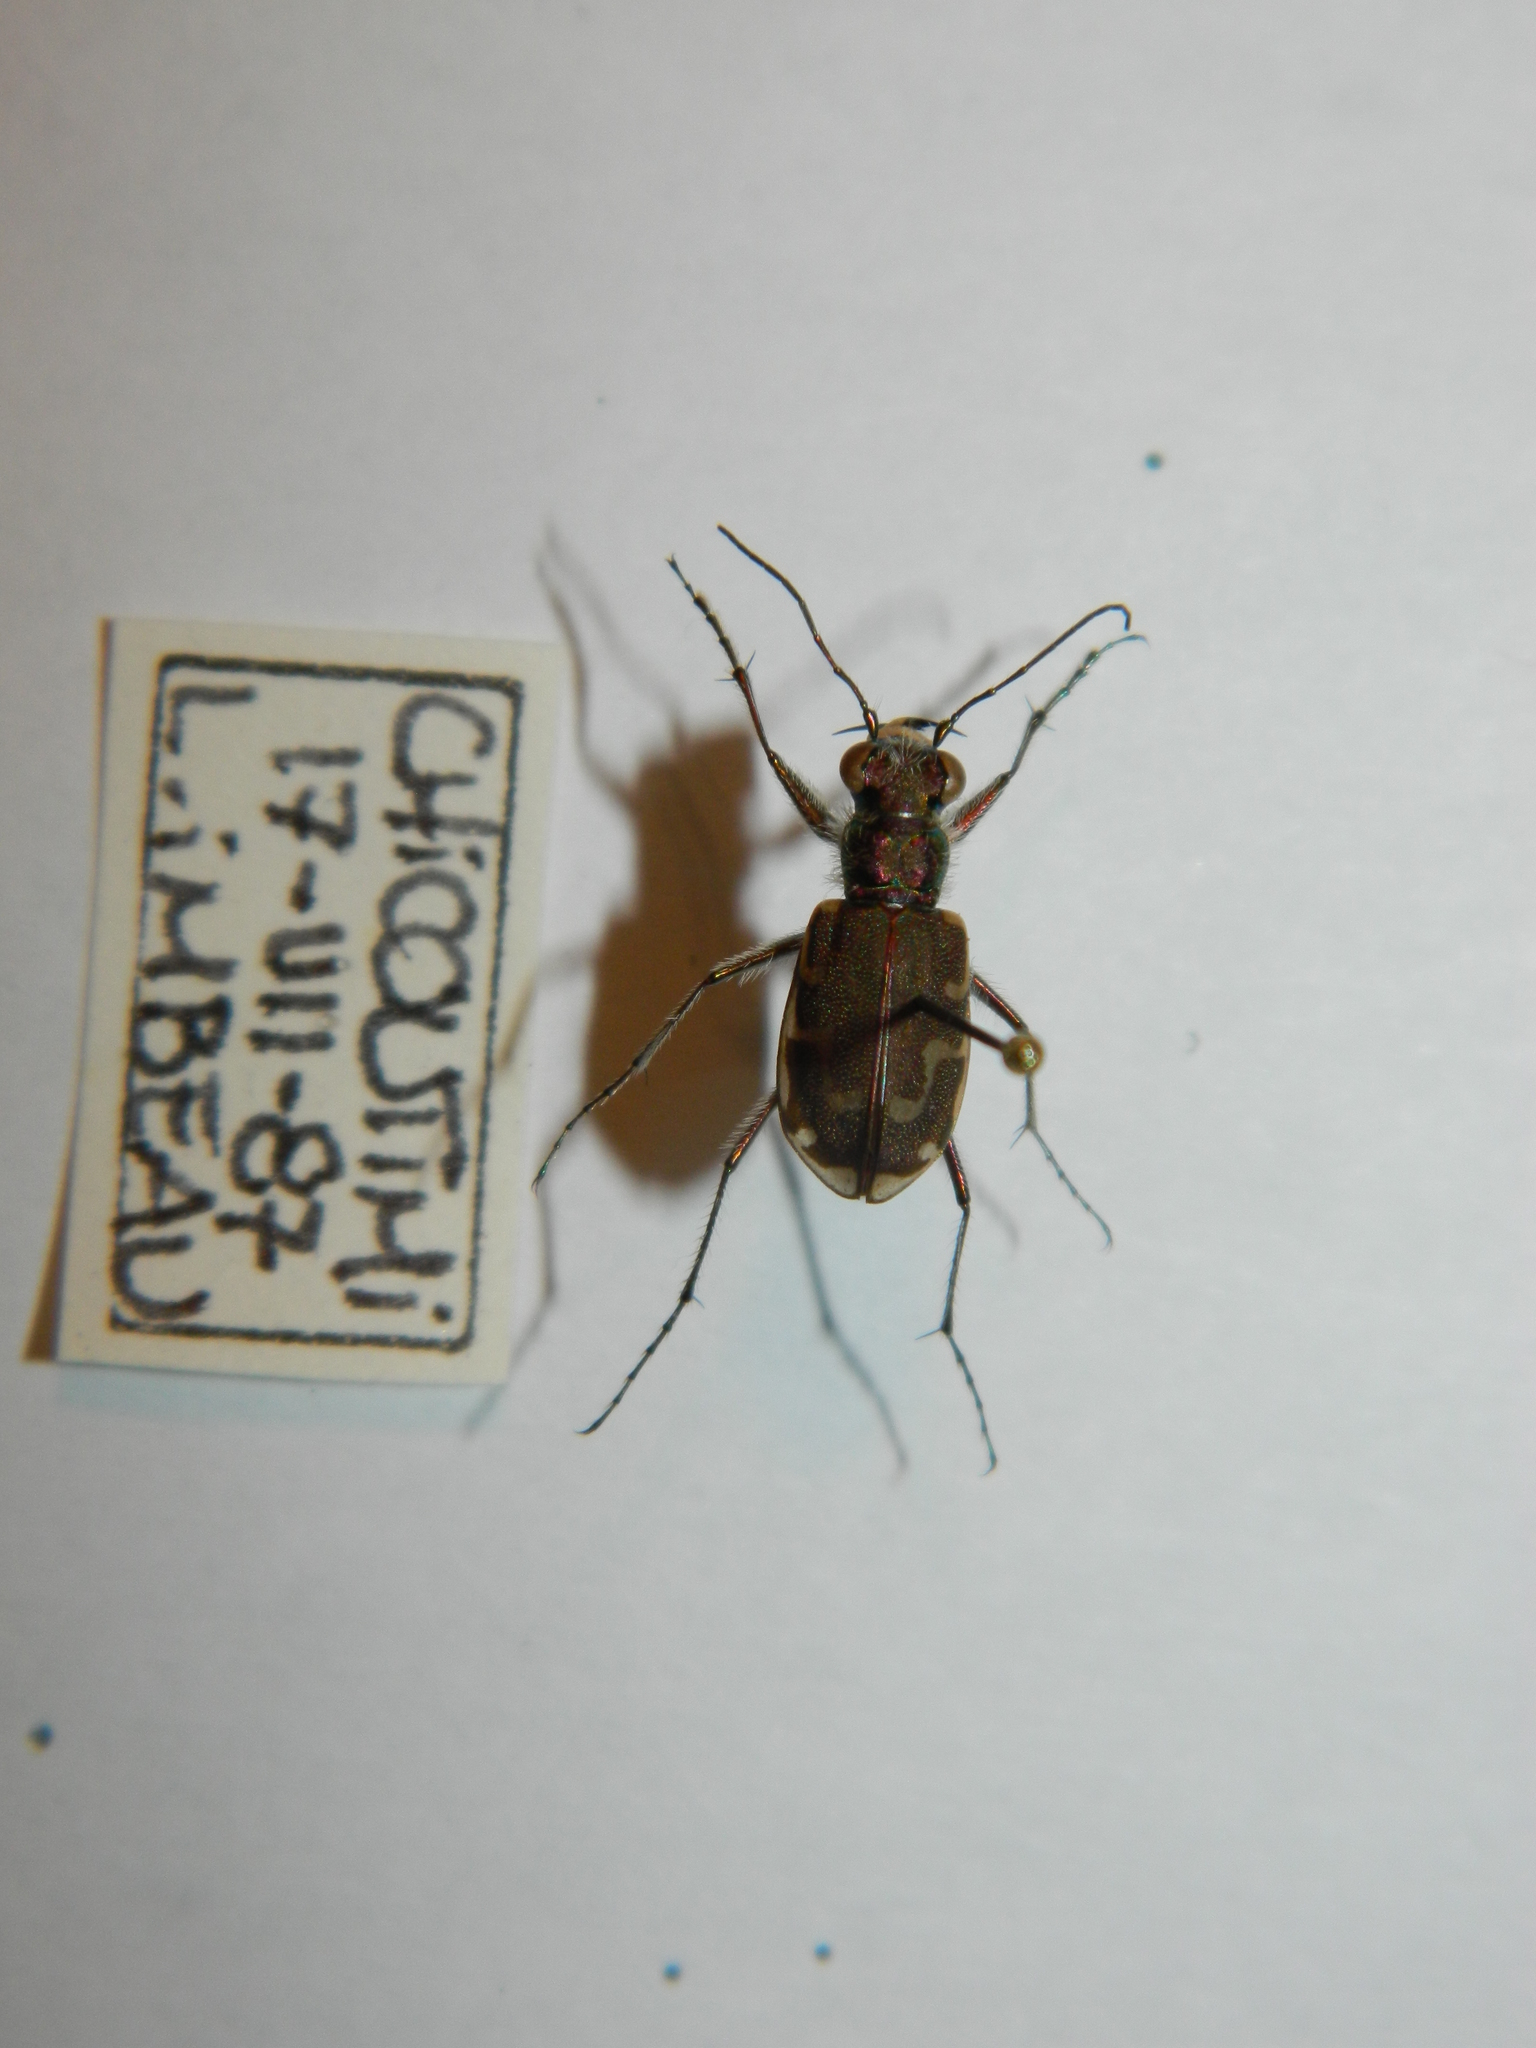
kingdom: Animalia
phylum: Arthropoda
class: Insecta
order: Coleoptera
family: Carabidae
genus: Cicindela
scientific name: Cicindela repanda
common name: Bronzed tiger beetle
